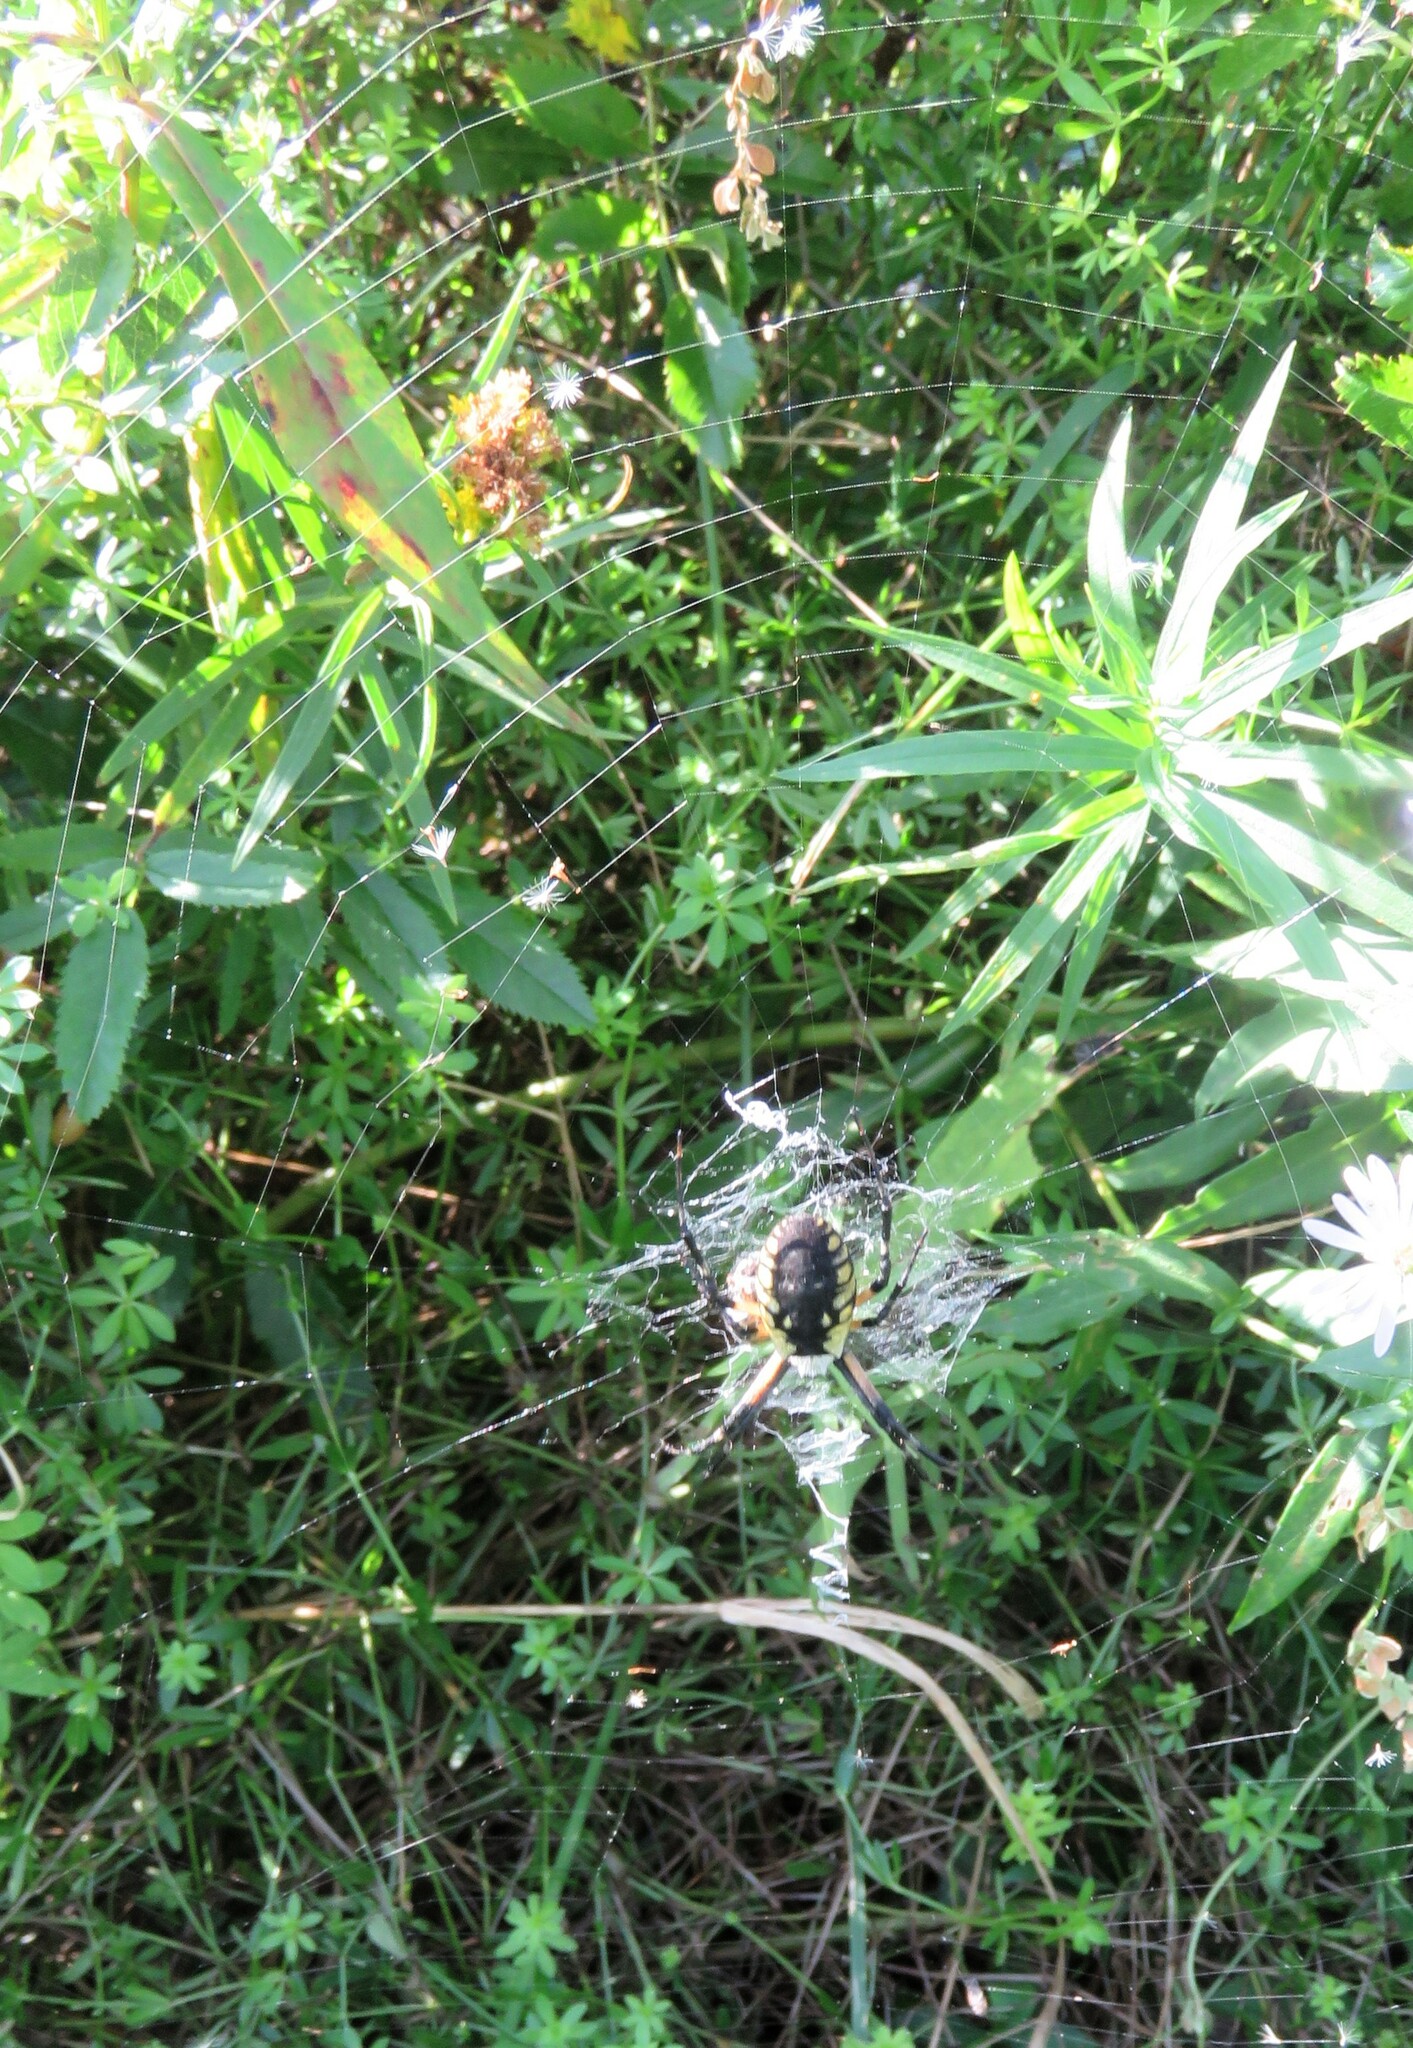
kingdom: Animalia
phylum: Arthropoda
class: Arachnida
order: Araneae
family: Araneidae
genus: Argiope
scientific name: Argiope aurantia
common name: Orb weavers
